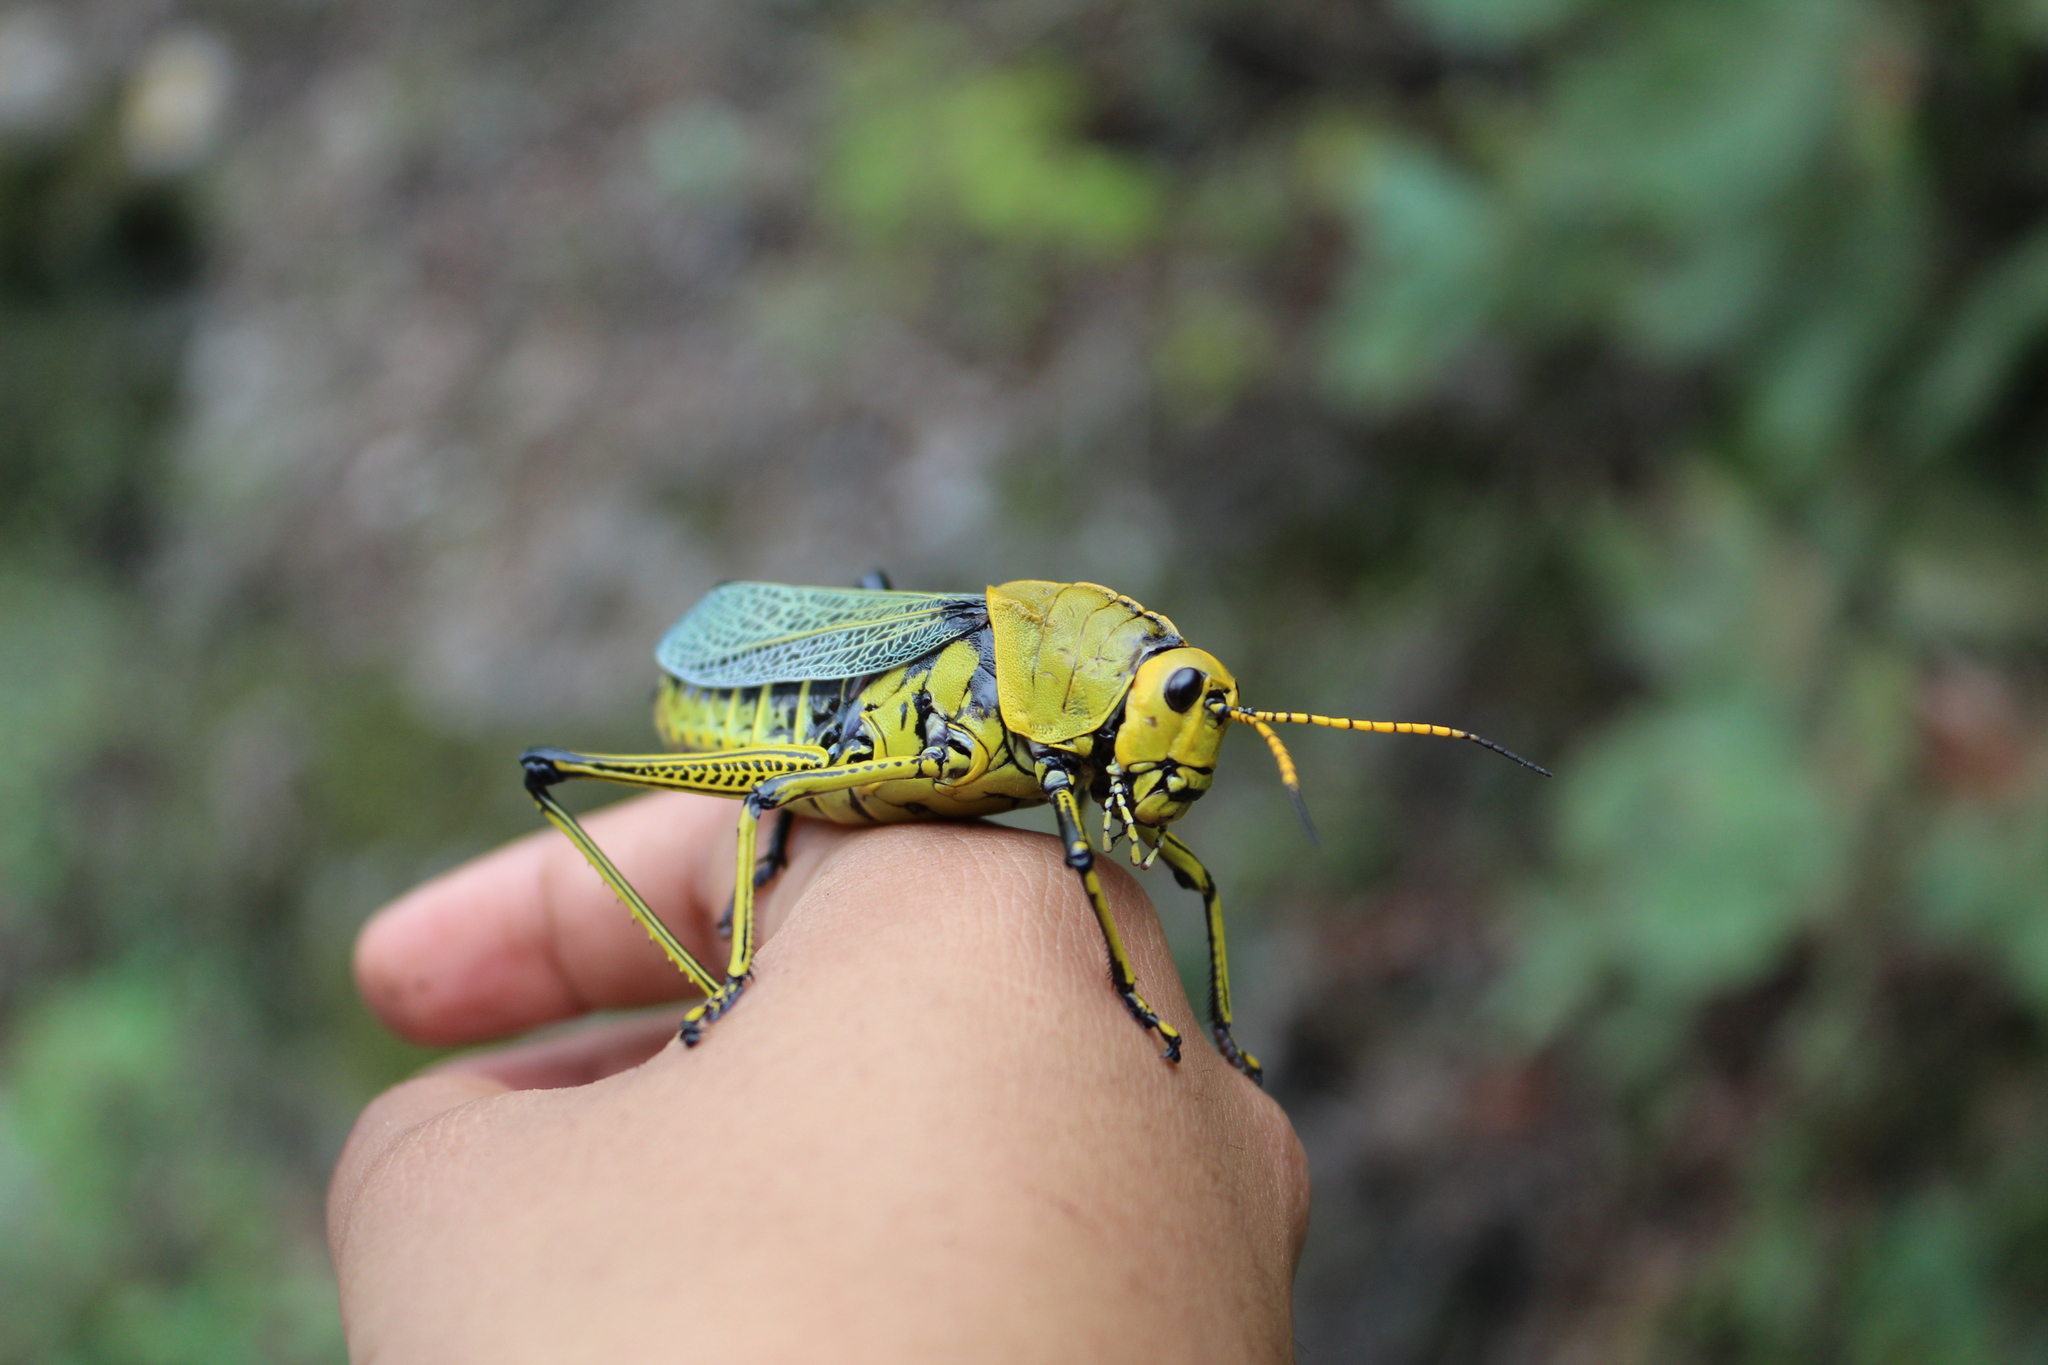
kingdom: Animalia
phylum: Arthropoda
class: Insecta
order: Orthoptera
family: Romaleidae
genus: Romalea
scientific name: Romalea
